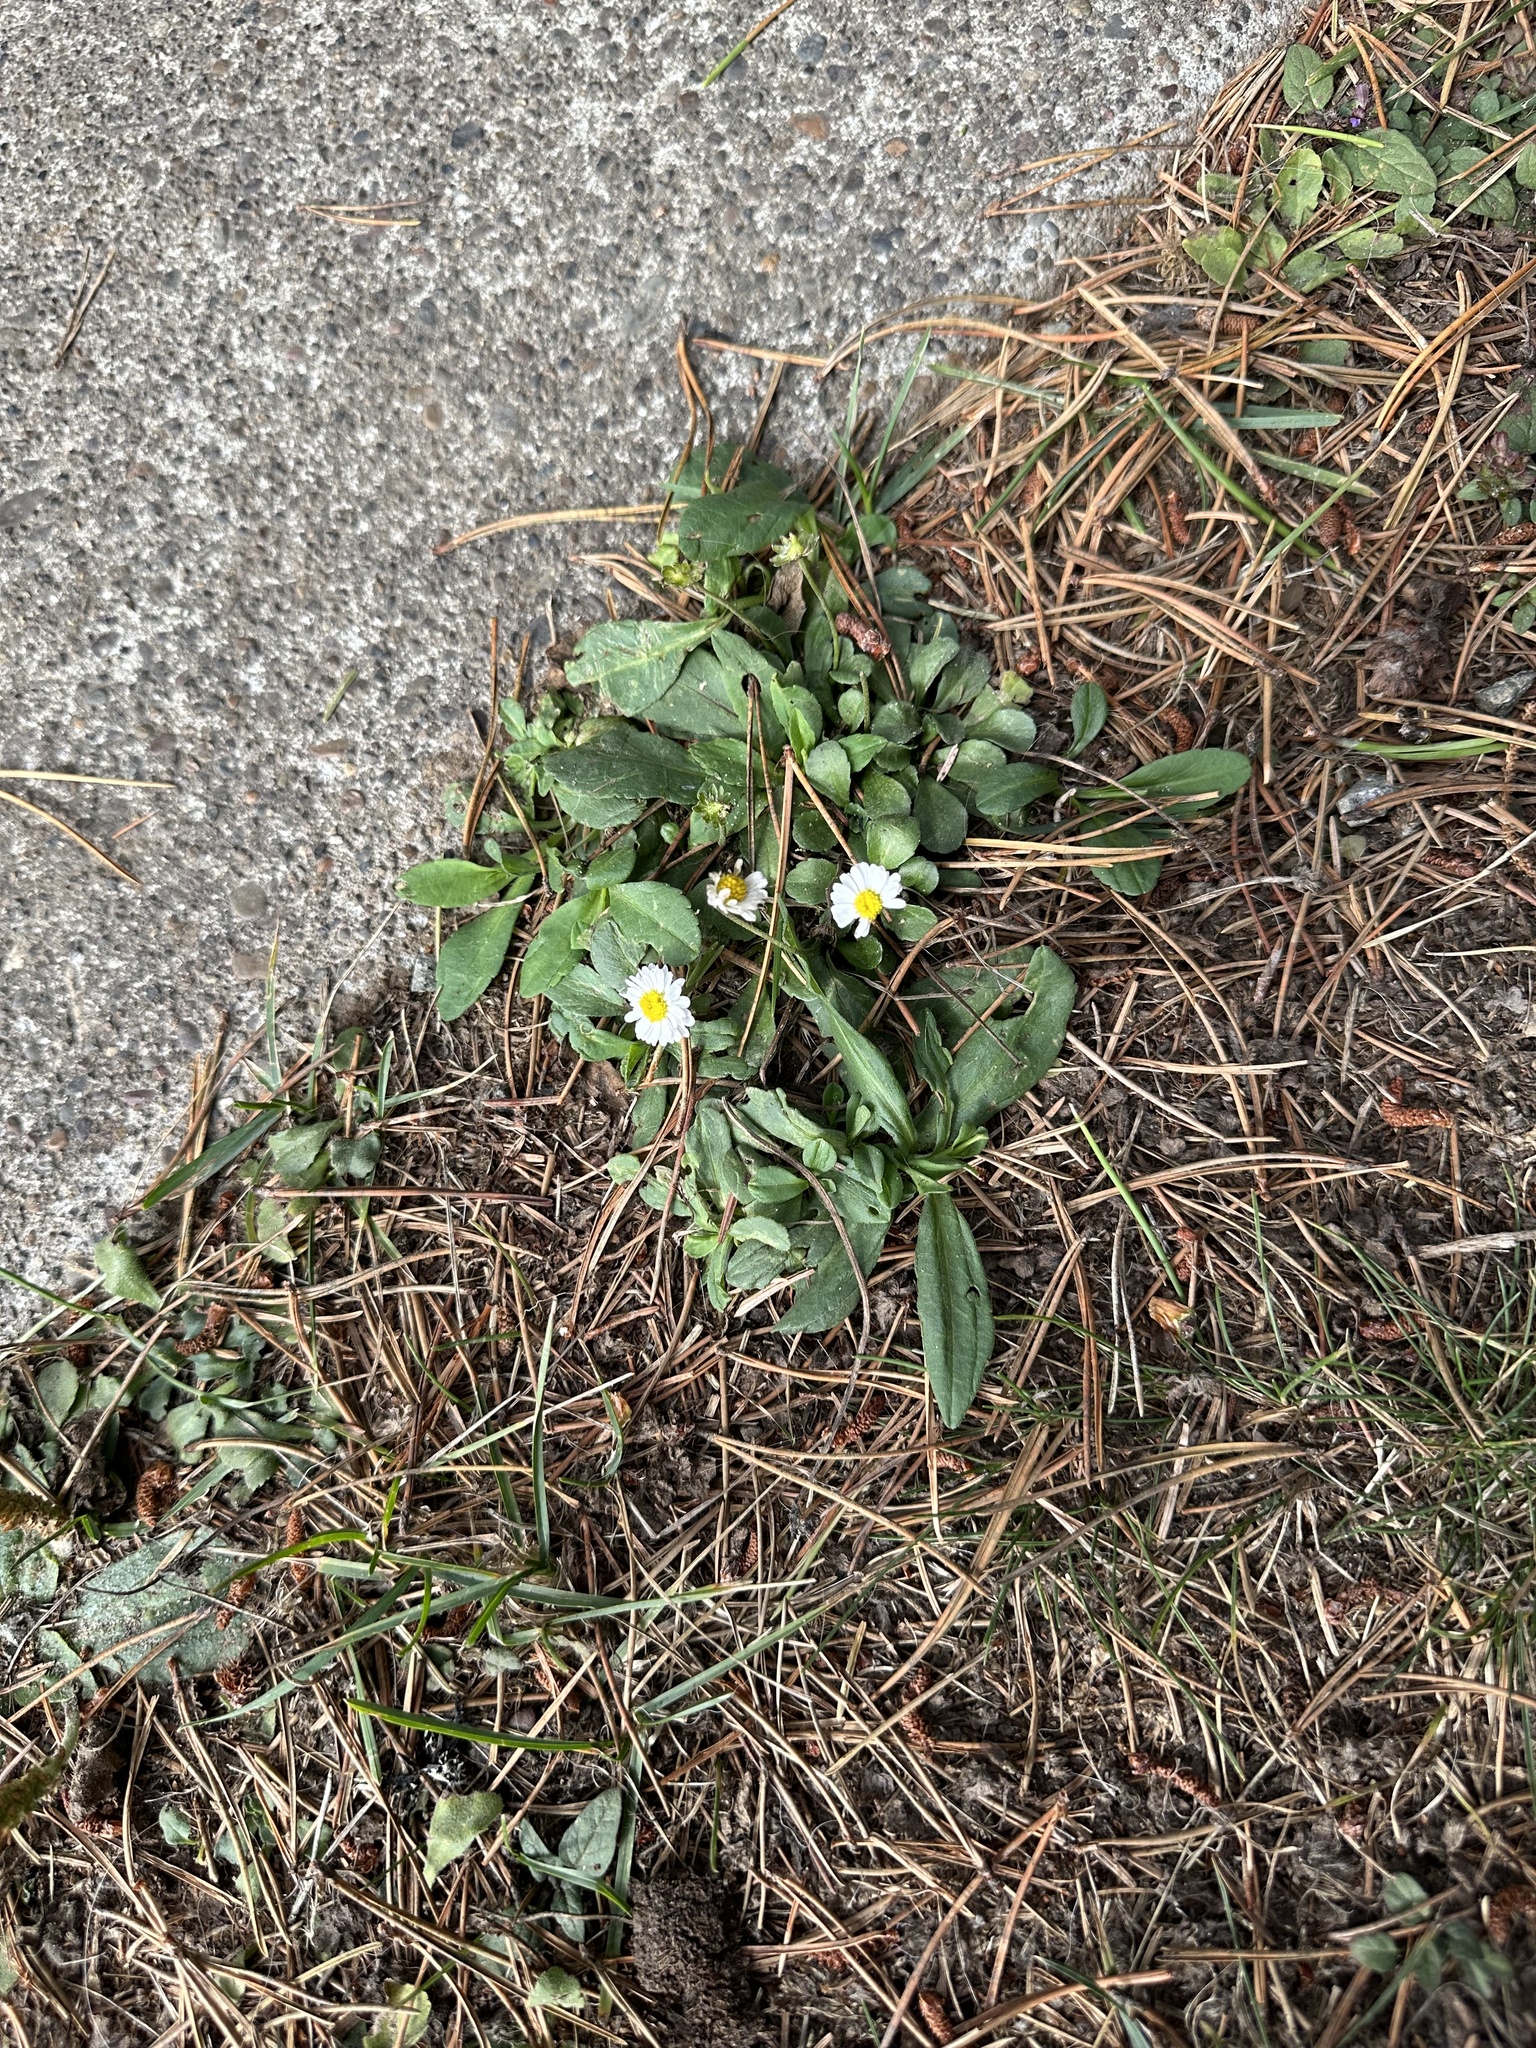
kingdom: Plantae
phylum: Tracheophyta
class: Magnoliopsida
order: Asterales
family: Asteraceae
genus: Bellis
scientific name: Bellis perennis
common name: Lawndaisy
